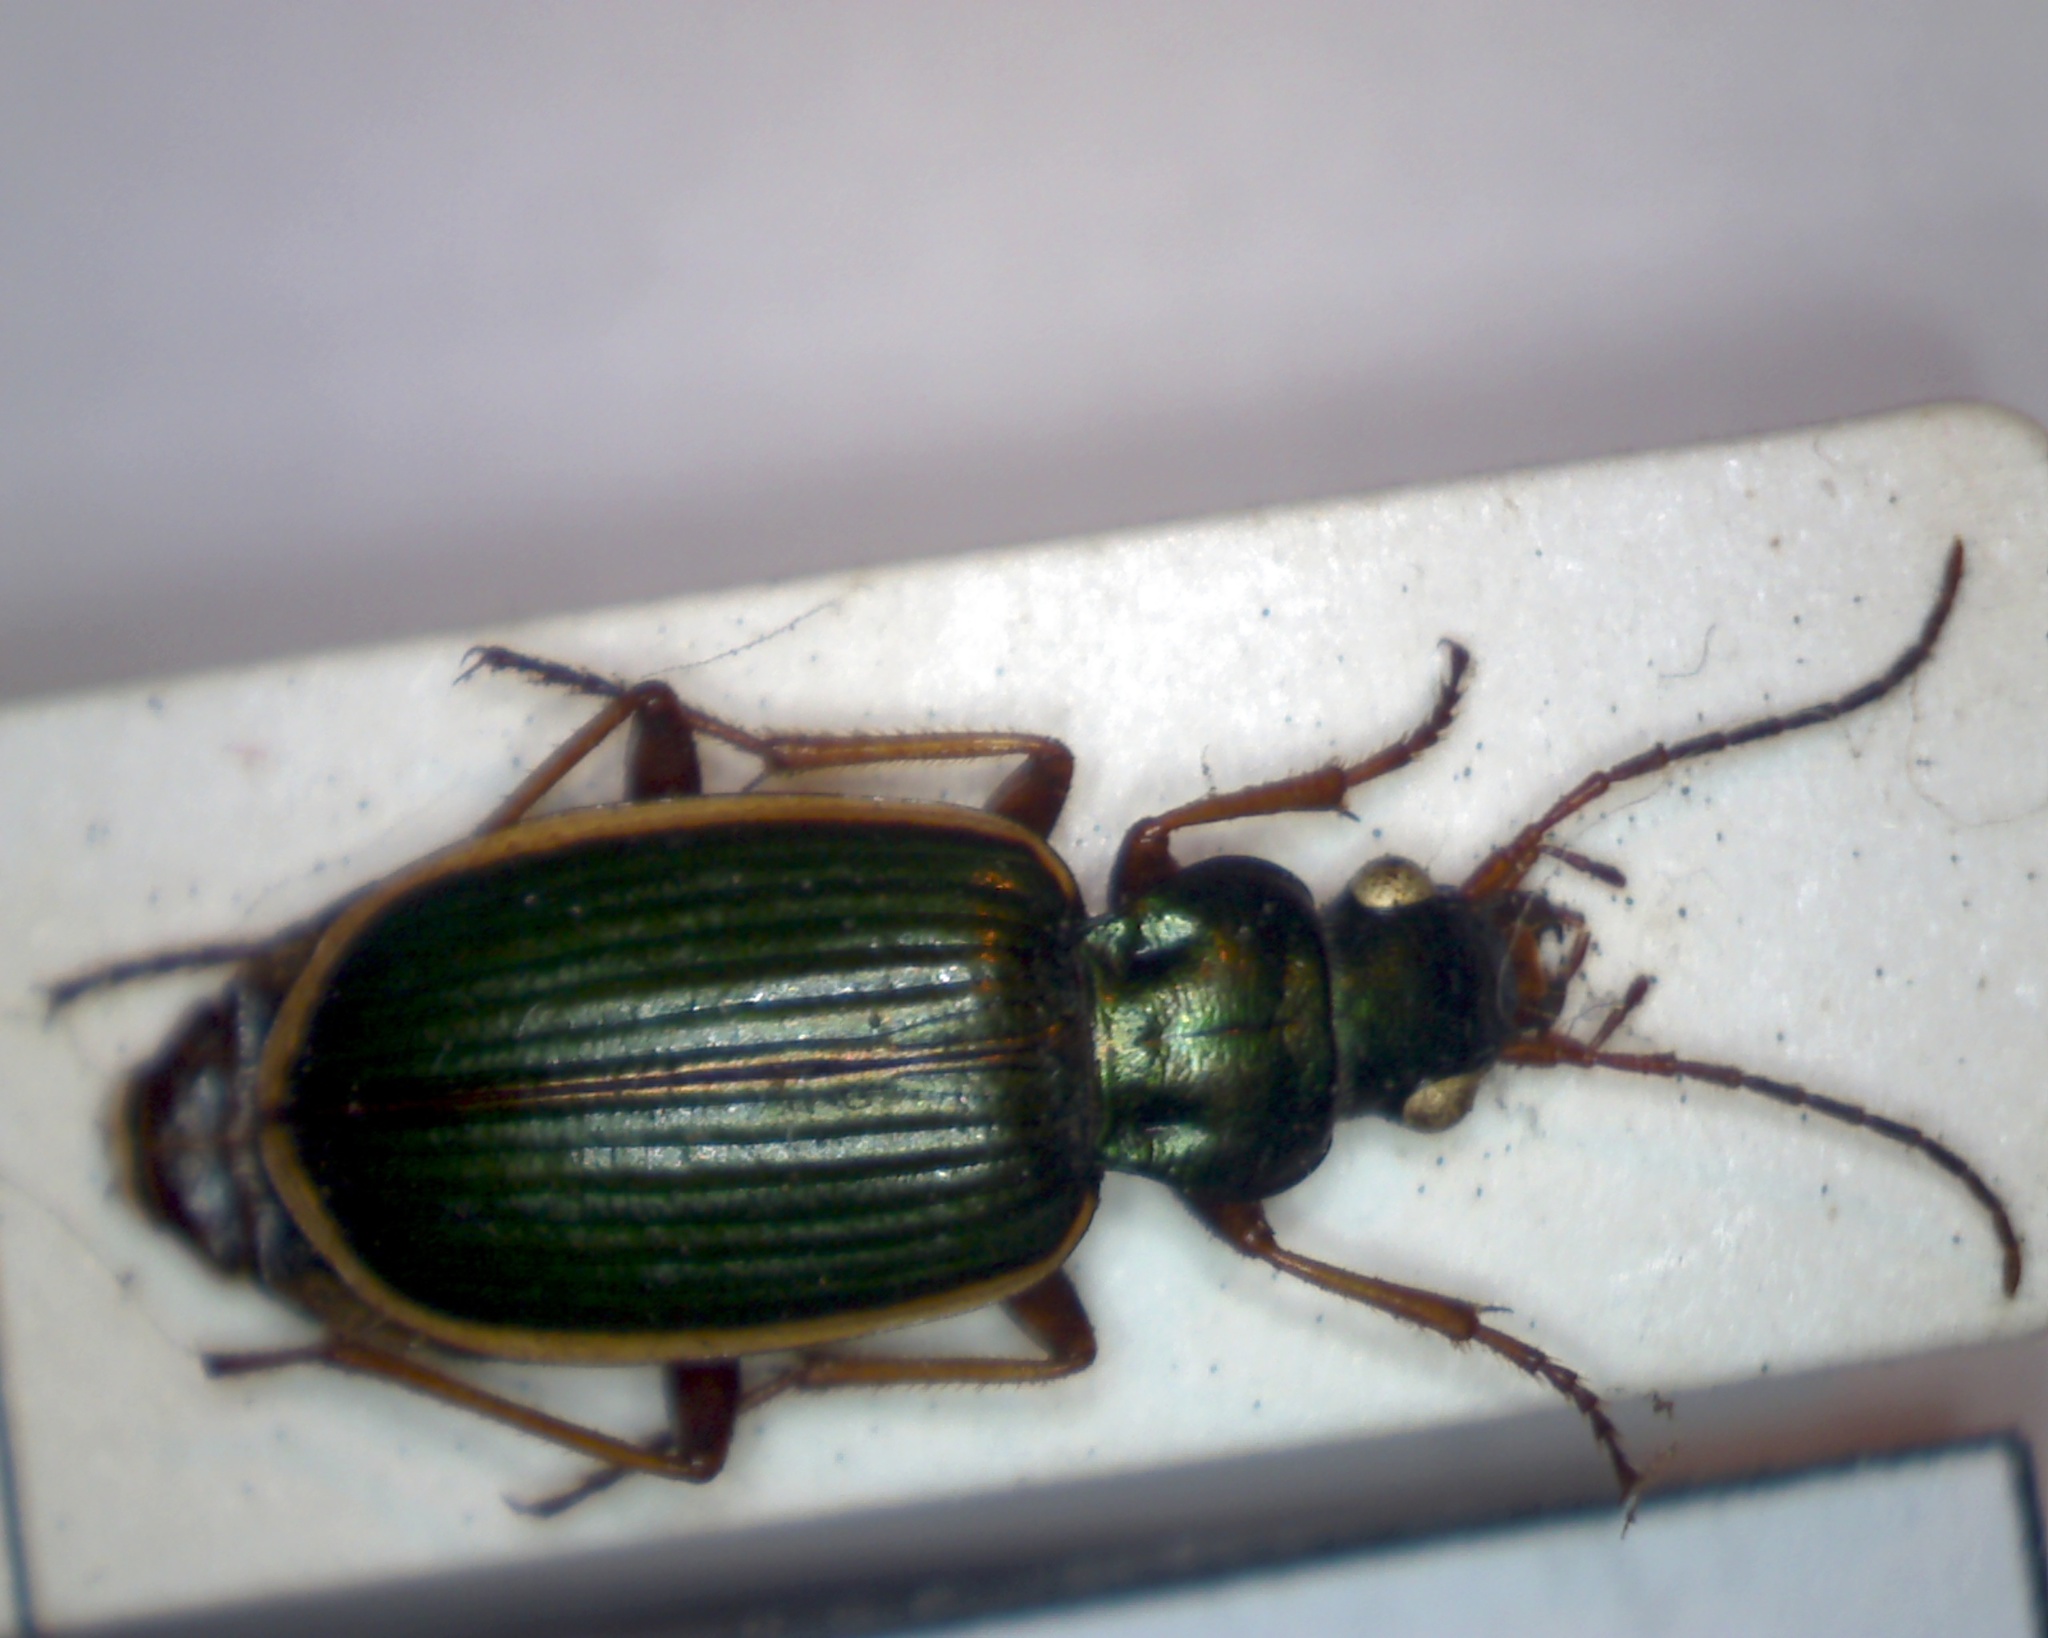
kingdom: Animalia
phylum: Arthropoda
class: Insecta
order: Coleoptera
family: Carabidae
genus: Chlaenius
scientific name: Chlaenius spoliatus
